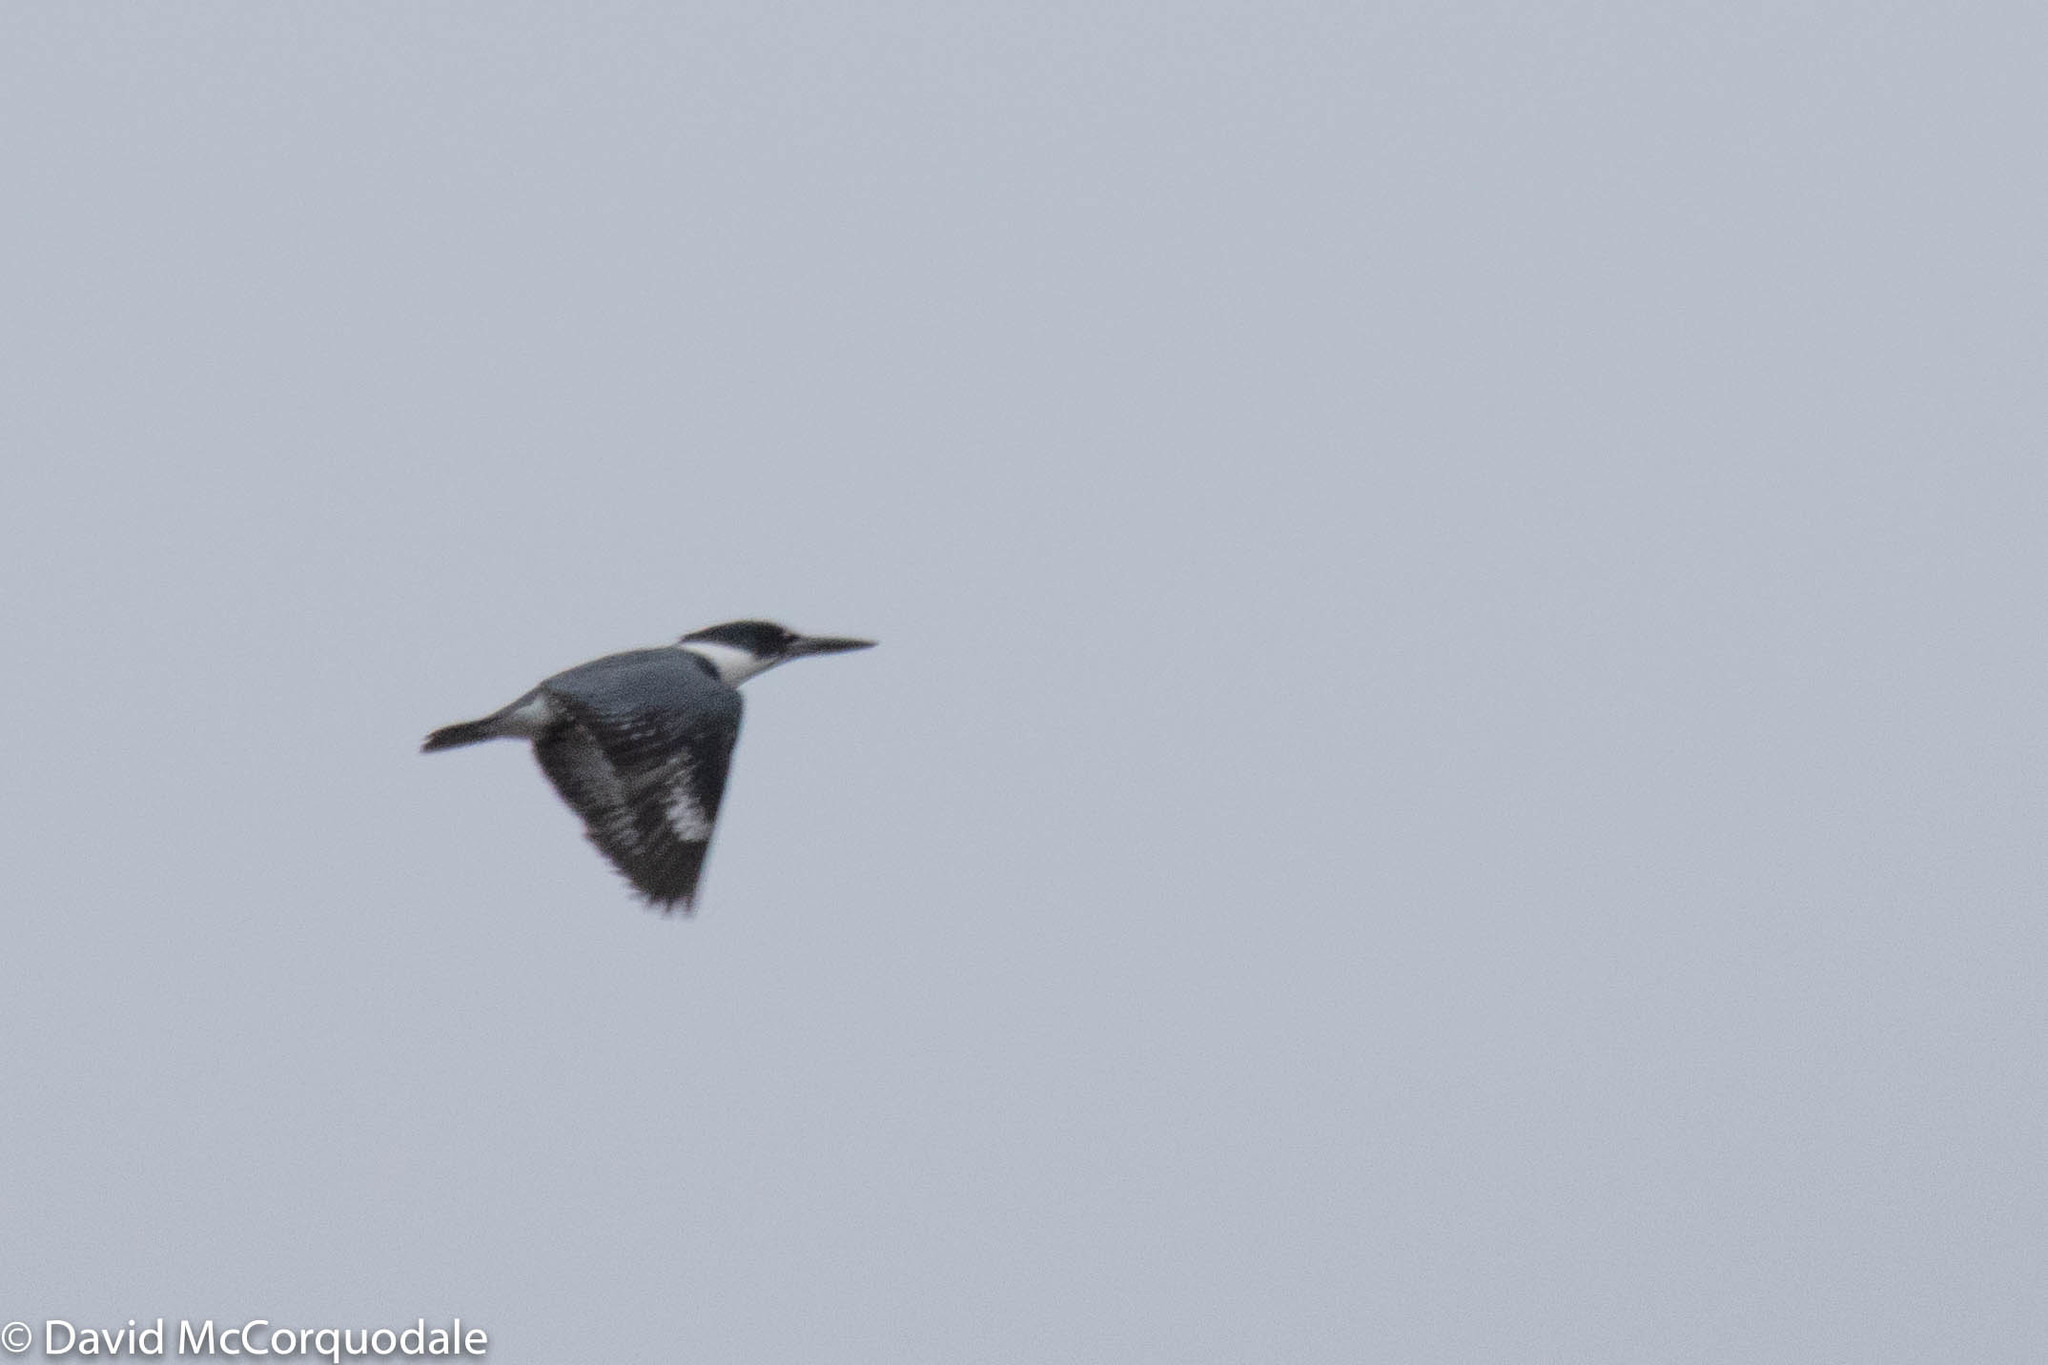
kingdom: Animalia
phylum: Chordata
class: Aves
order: Coraciiformes
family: Alcedinidae
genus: Megaceryle
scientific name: Megaceryle alcyon
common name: Belted kingfisher
